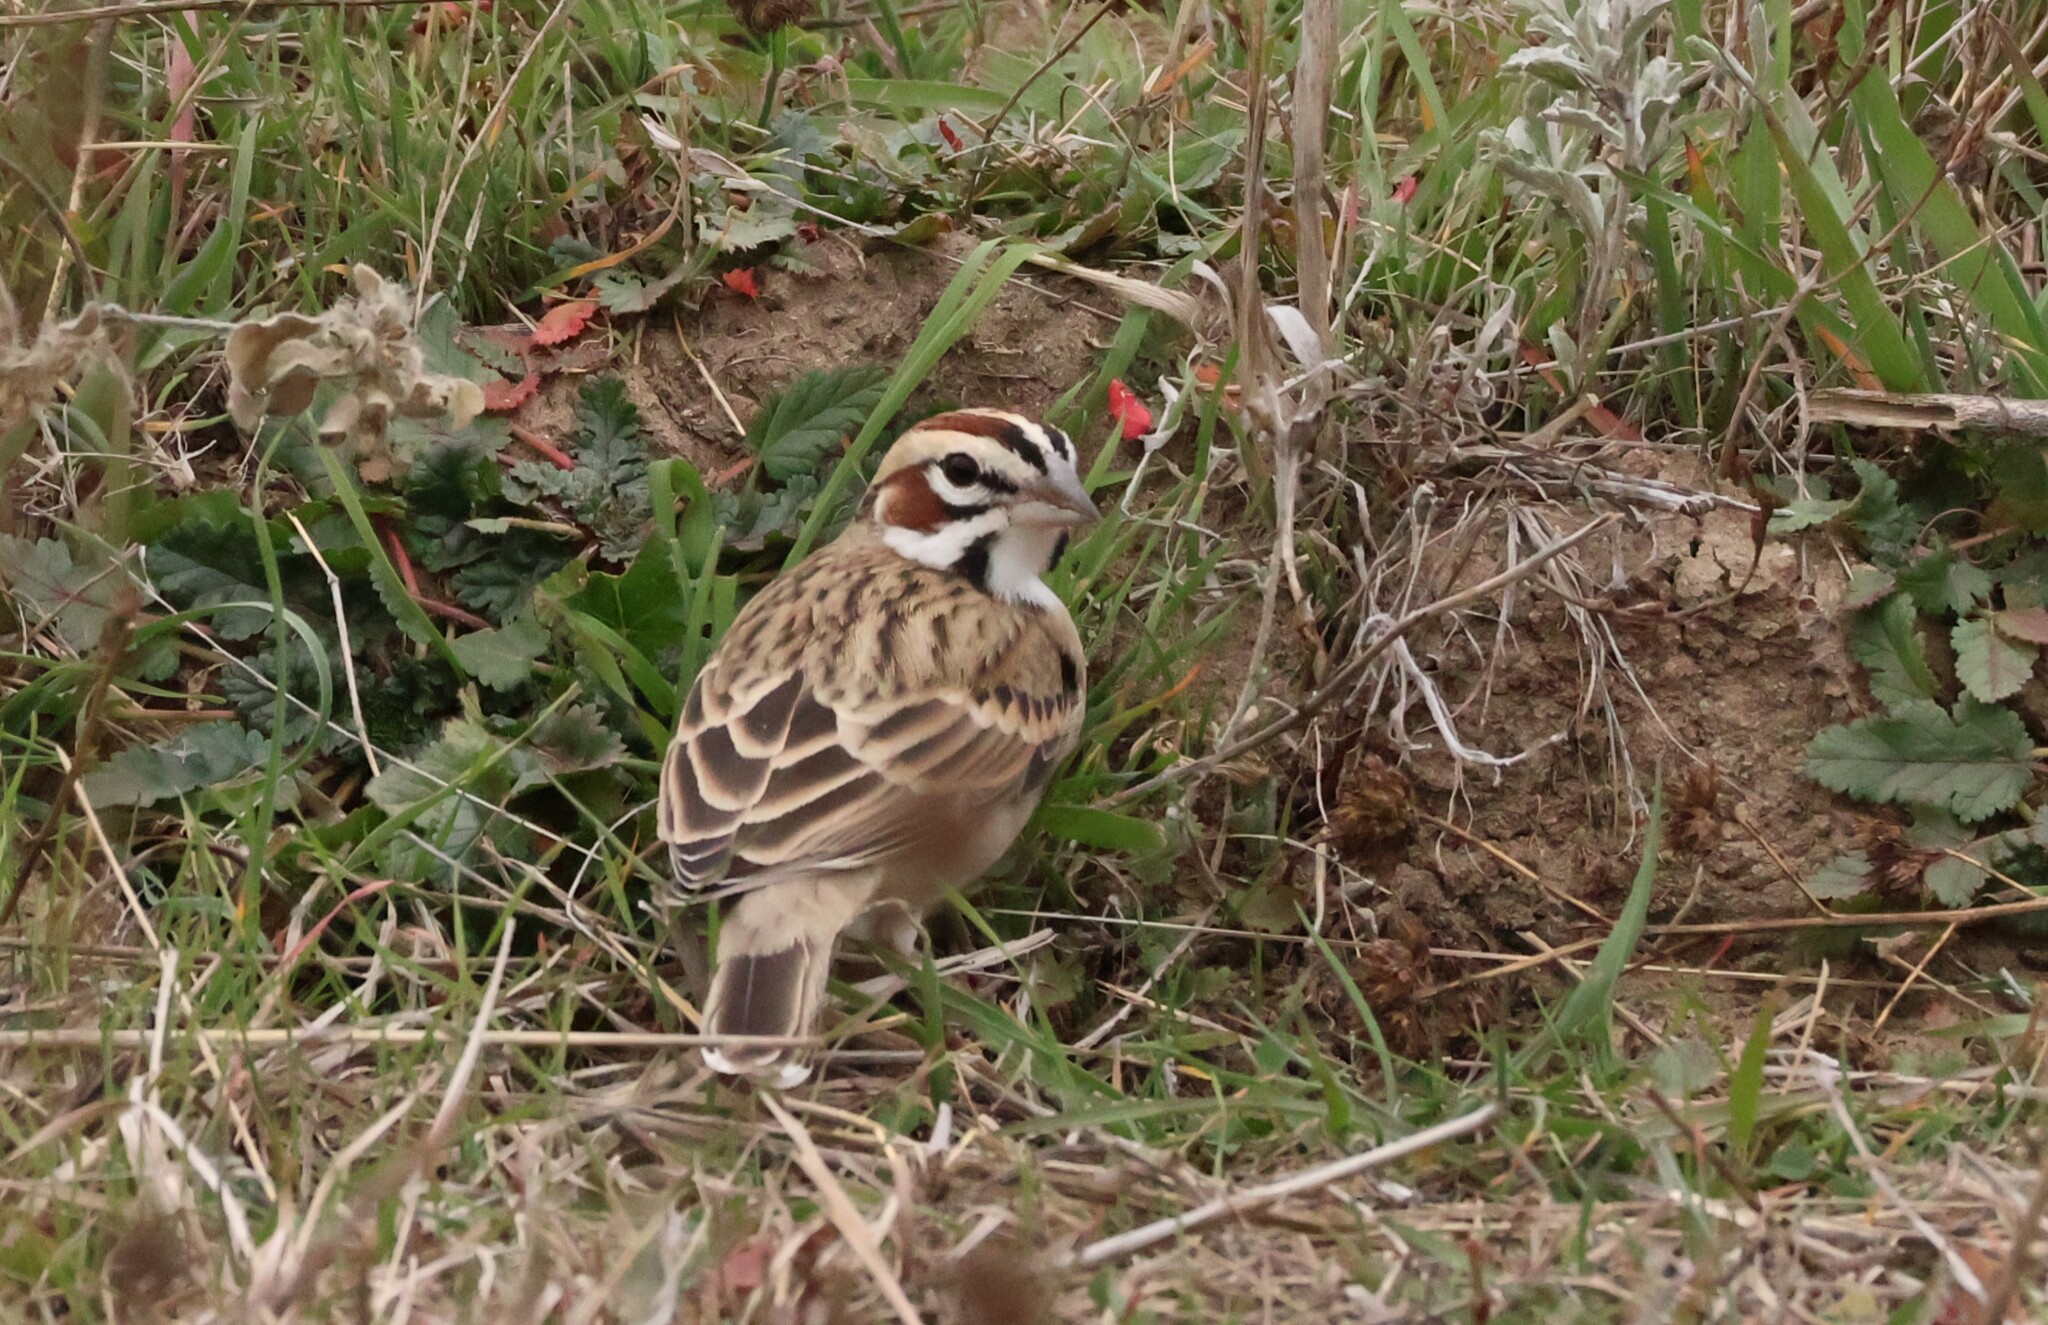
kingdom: Animalia
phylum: Chordata
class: Aves
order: Passeriformes
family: Passerellidae
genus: Chondestes
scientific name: Chondestes grammacus
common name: Lark sparrow
